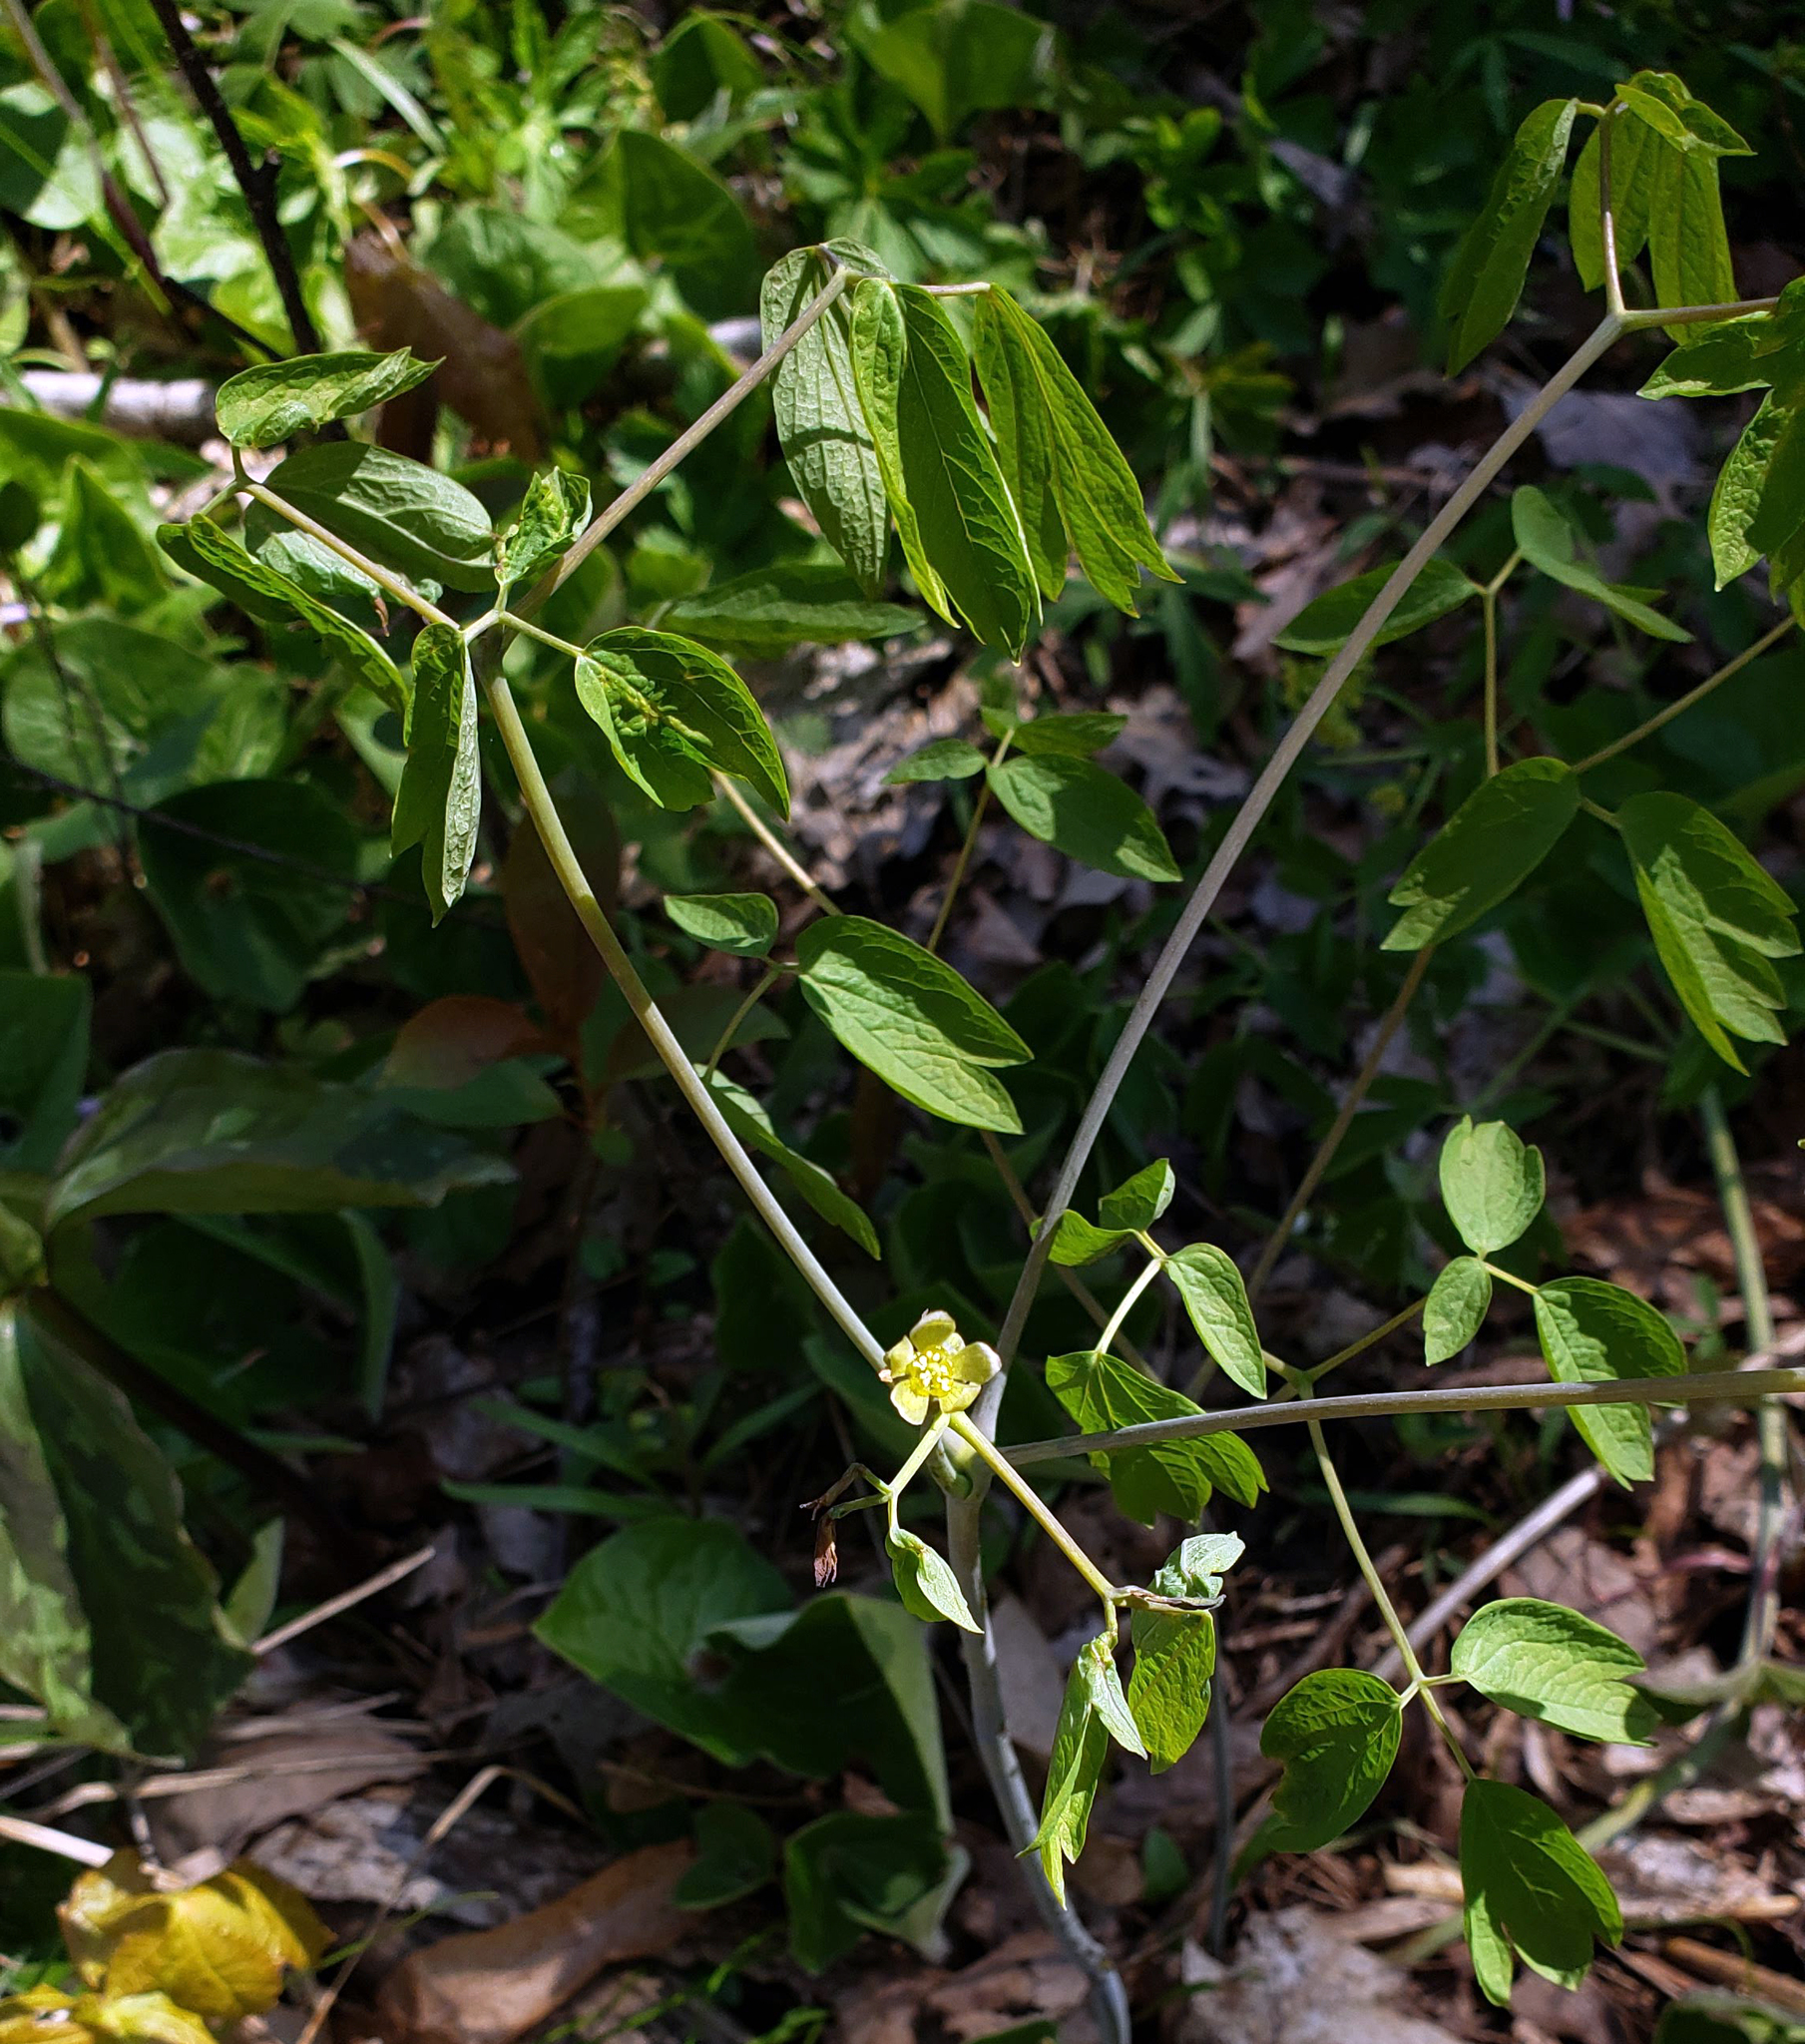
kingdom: Plantae
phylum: Tracheophyta
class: Magnoliopsida
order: Ranunculales
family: Berberidaceae
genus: Caulophyllum
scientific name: Caulophyllum thalictroides
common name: Blue cohosh
